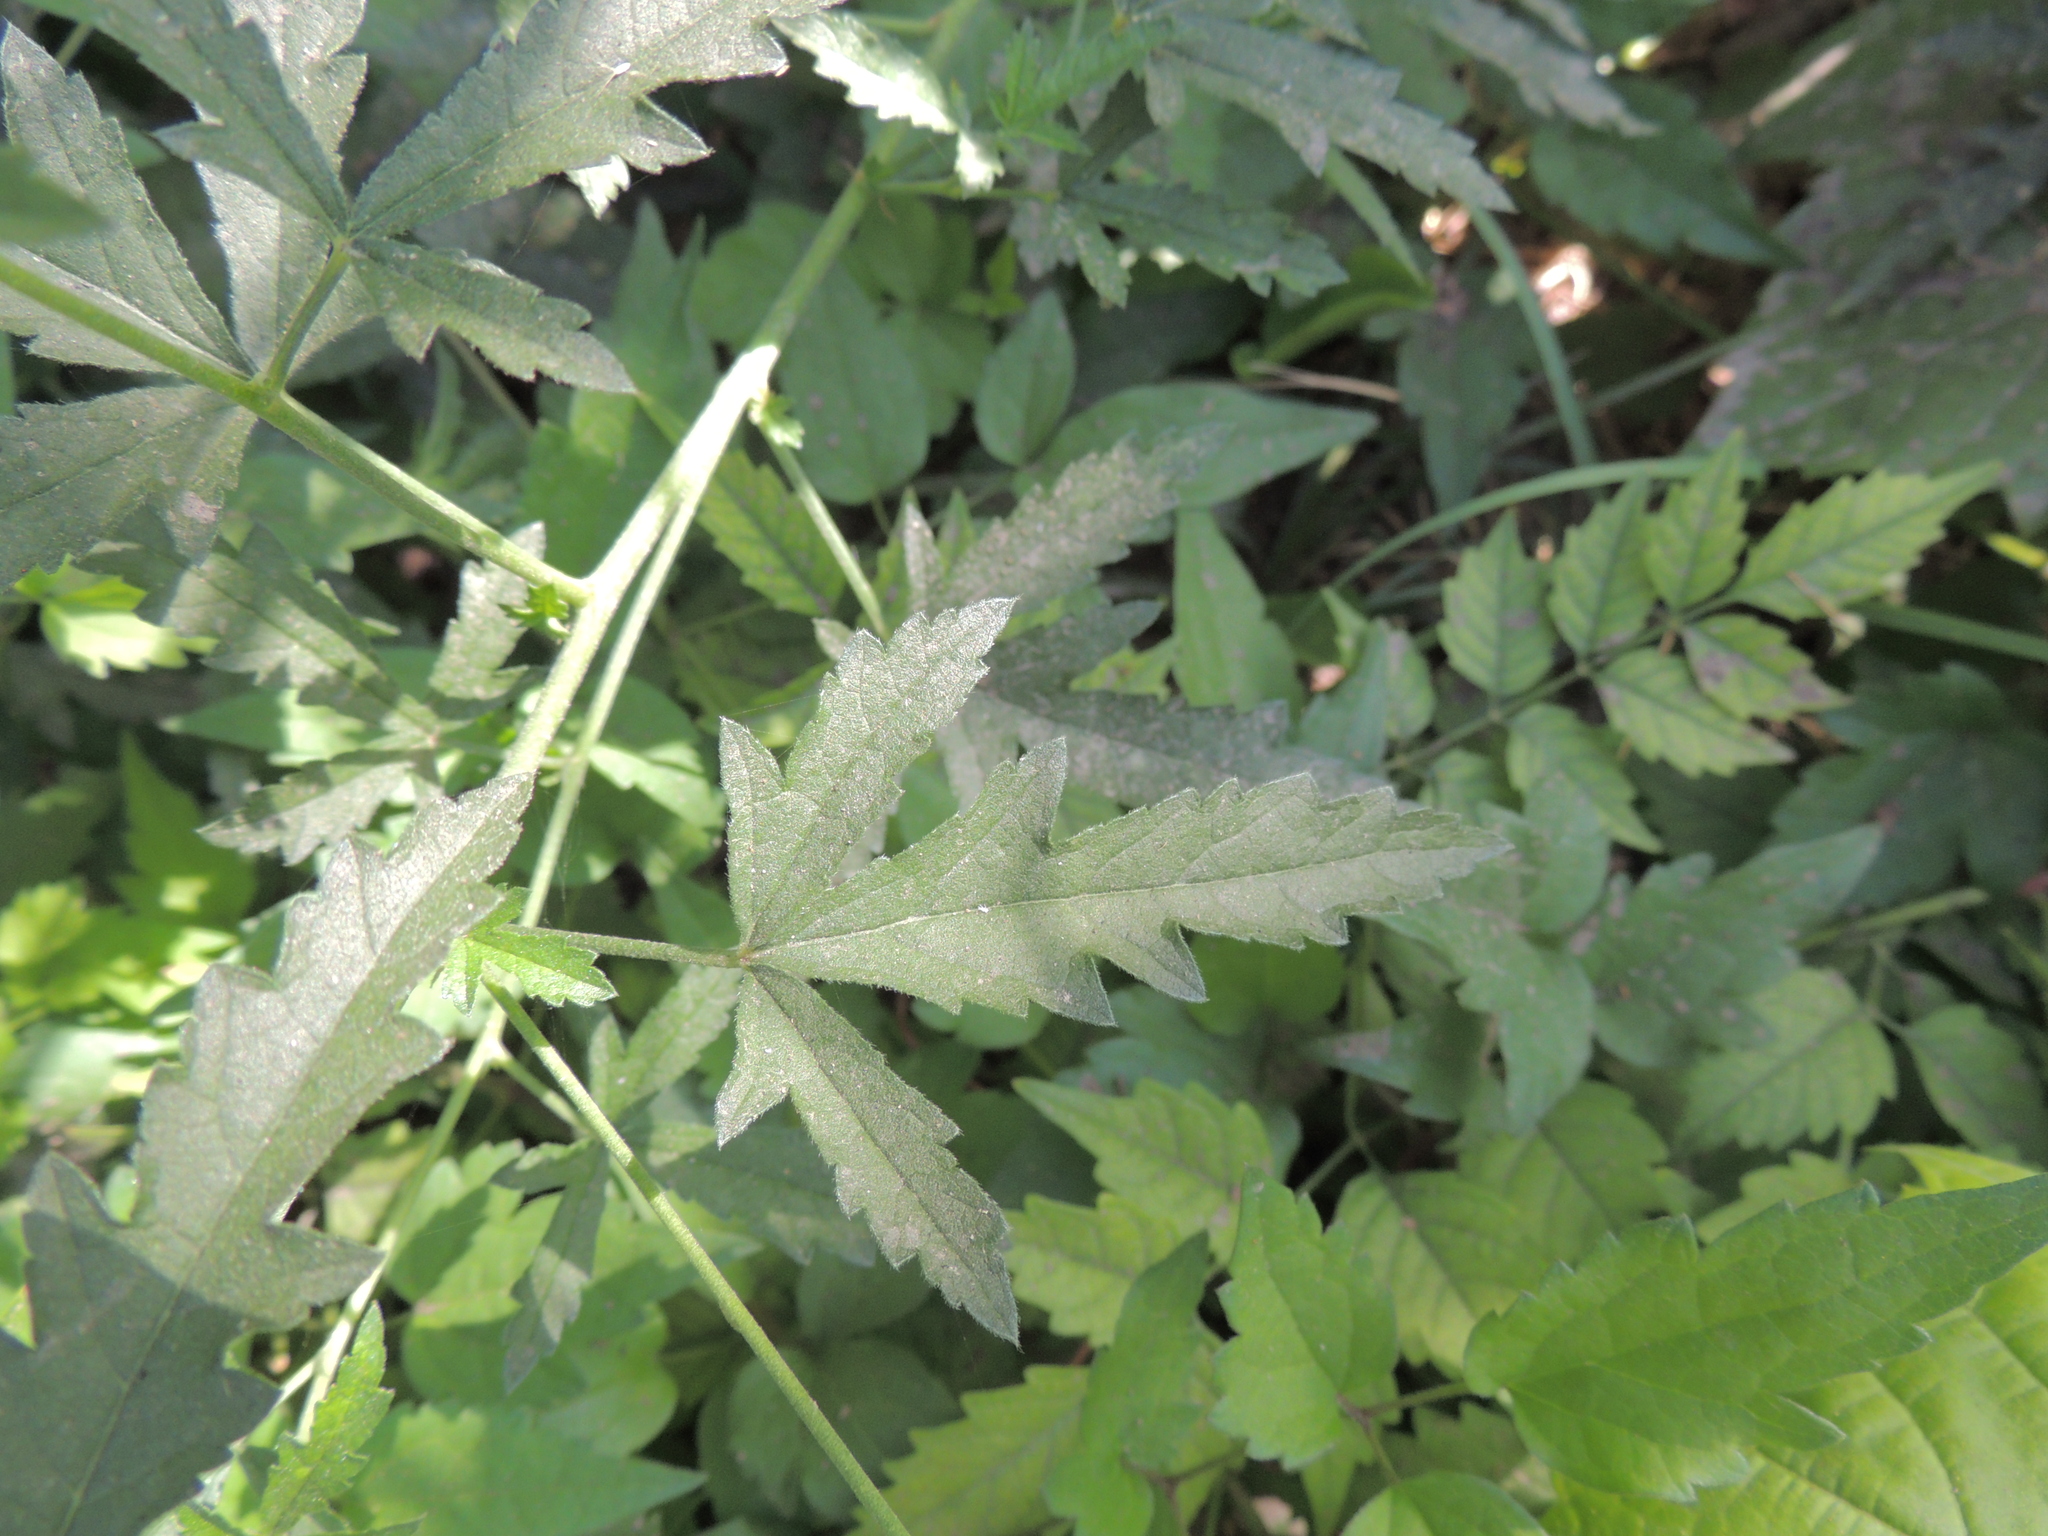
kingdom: Plantae
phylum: Tracheophyta
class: Magnoliopsida
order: Malvales
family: Malvaceae
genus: Althaea
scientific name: Althaea cannabina
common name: Palm-leaf marshmallow
